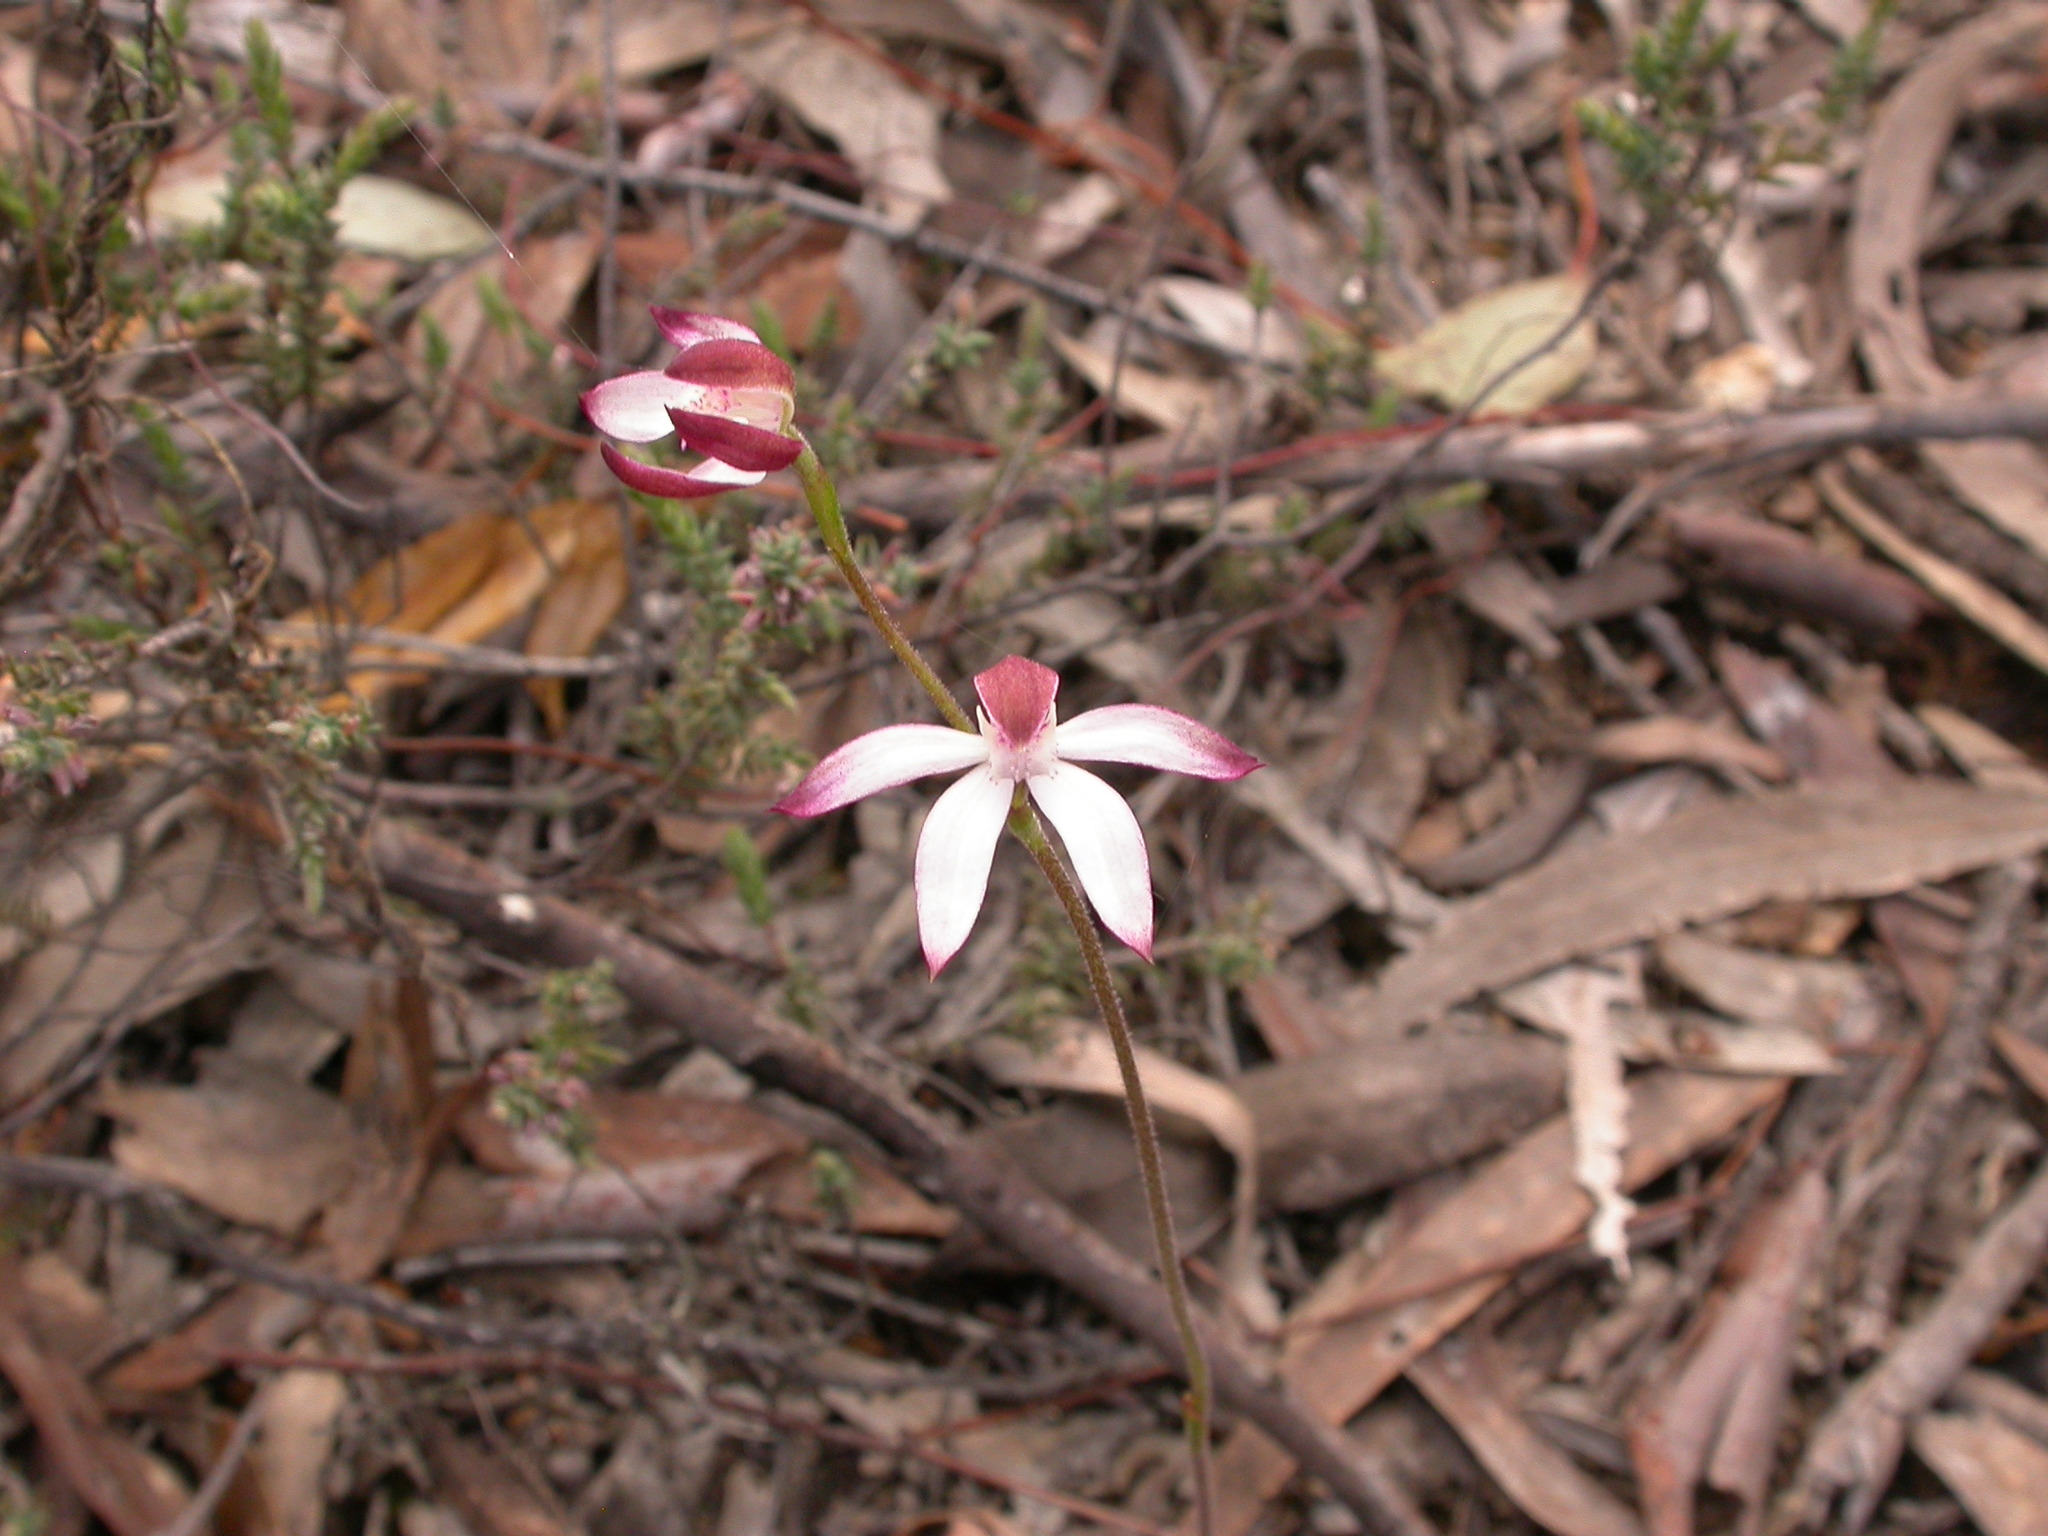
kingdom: Plantae
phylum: Tracheophyta
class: Liliopsida
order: Asparagales
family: Orchidaceae
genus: Caladenia
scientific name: Caladenia moschata
